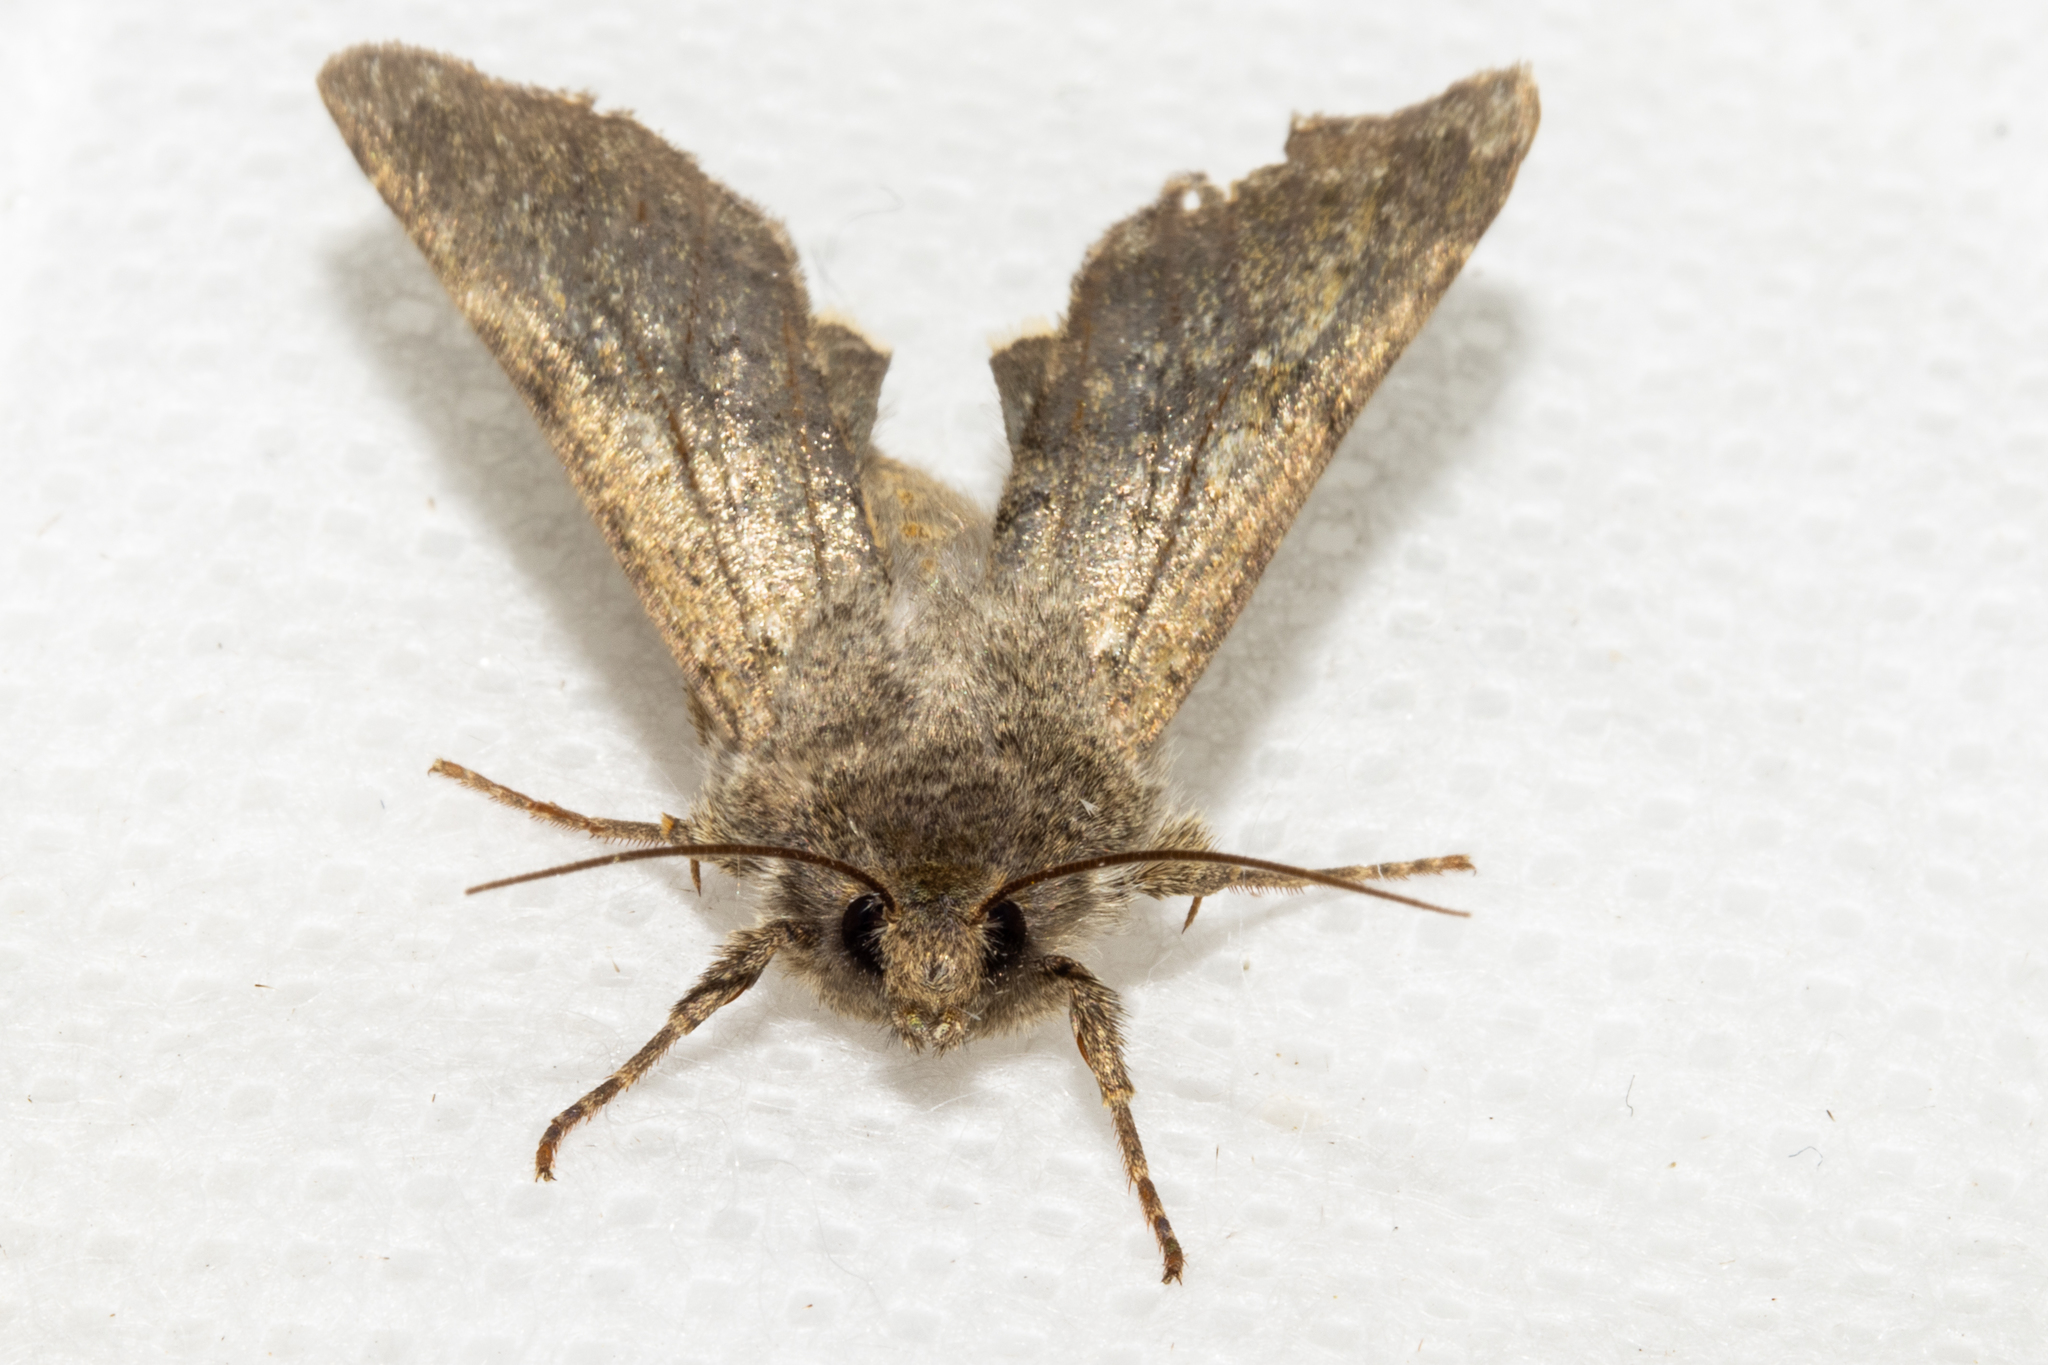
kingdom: Animalia
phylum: Arthropoda
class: Insecta
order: Lepidoptera
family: Noctuidae
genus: Ichneutica
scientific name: Ichneutica moderata
